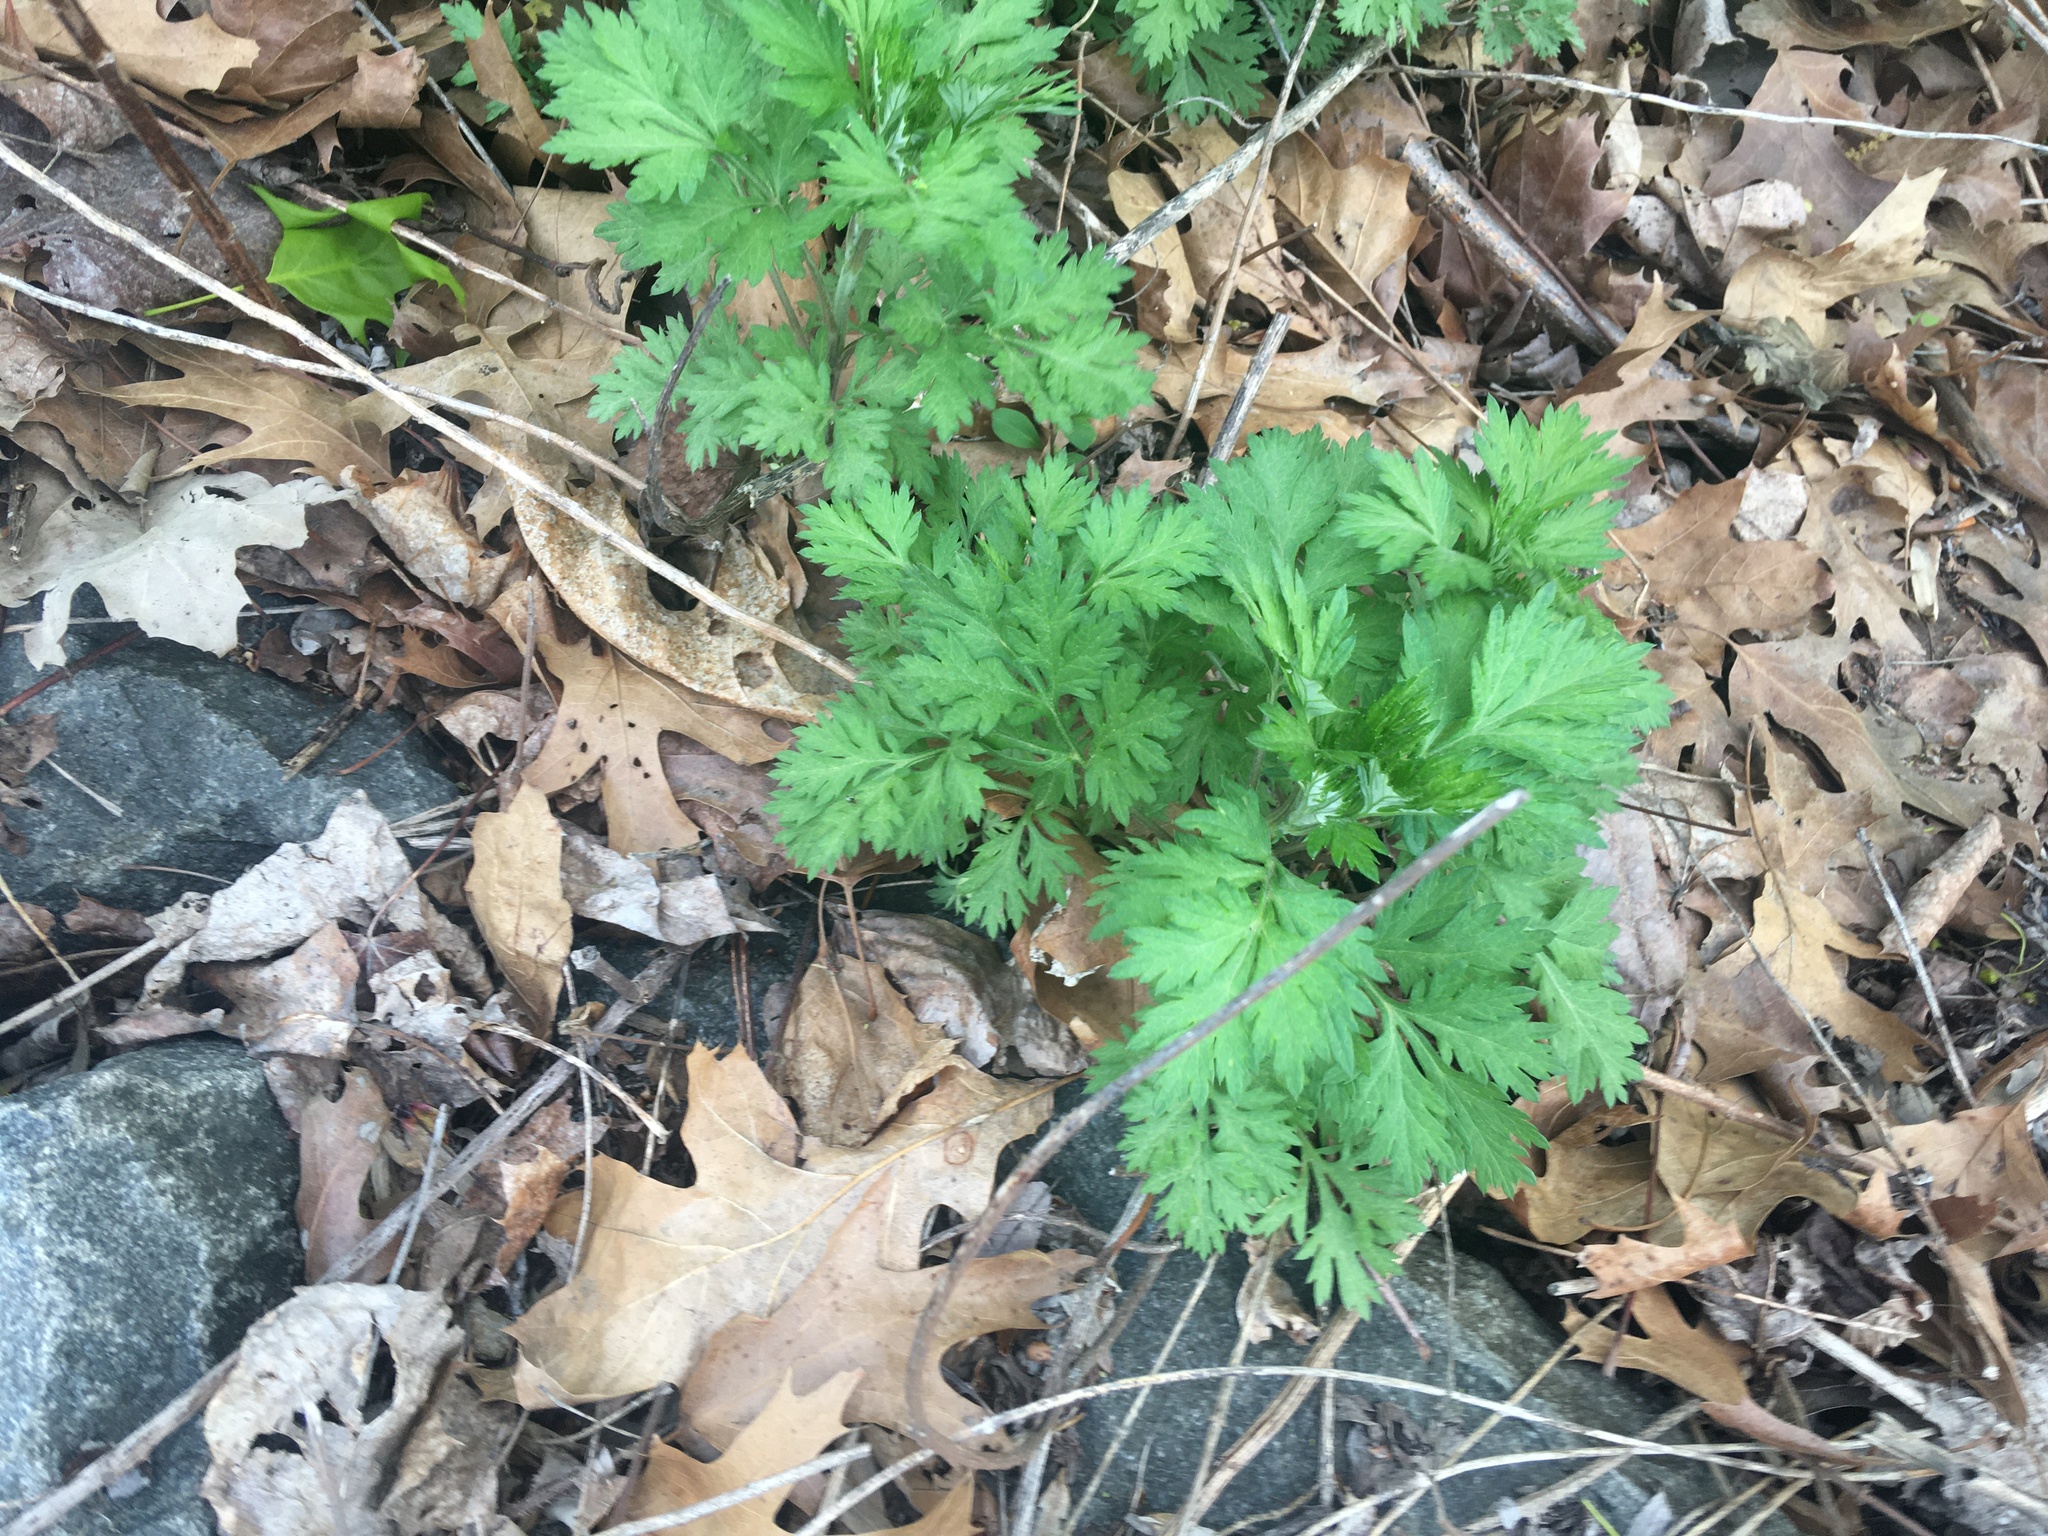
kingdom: Plantae
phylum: Tracheophyta
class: Magnoliopsida
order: Asterales
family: Asteraceae
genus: Artemisia
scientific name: Artemisia vulgaris
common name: Mugwort
